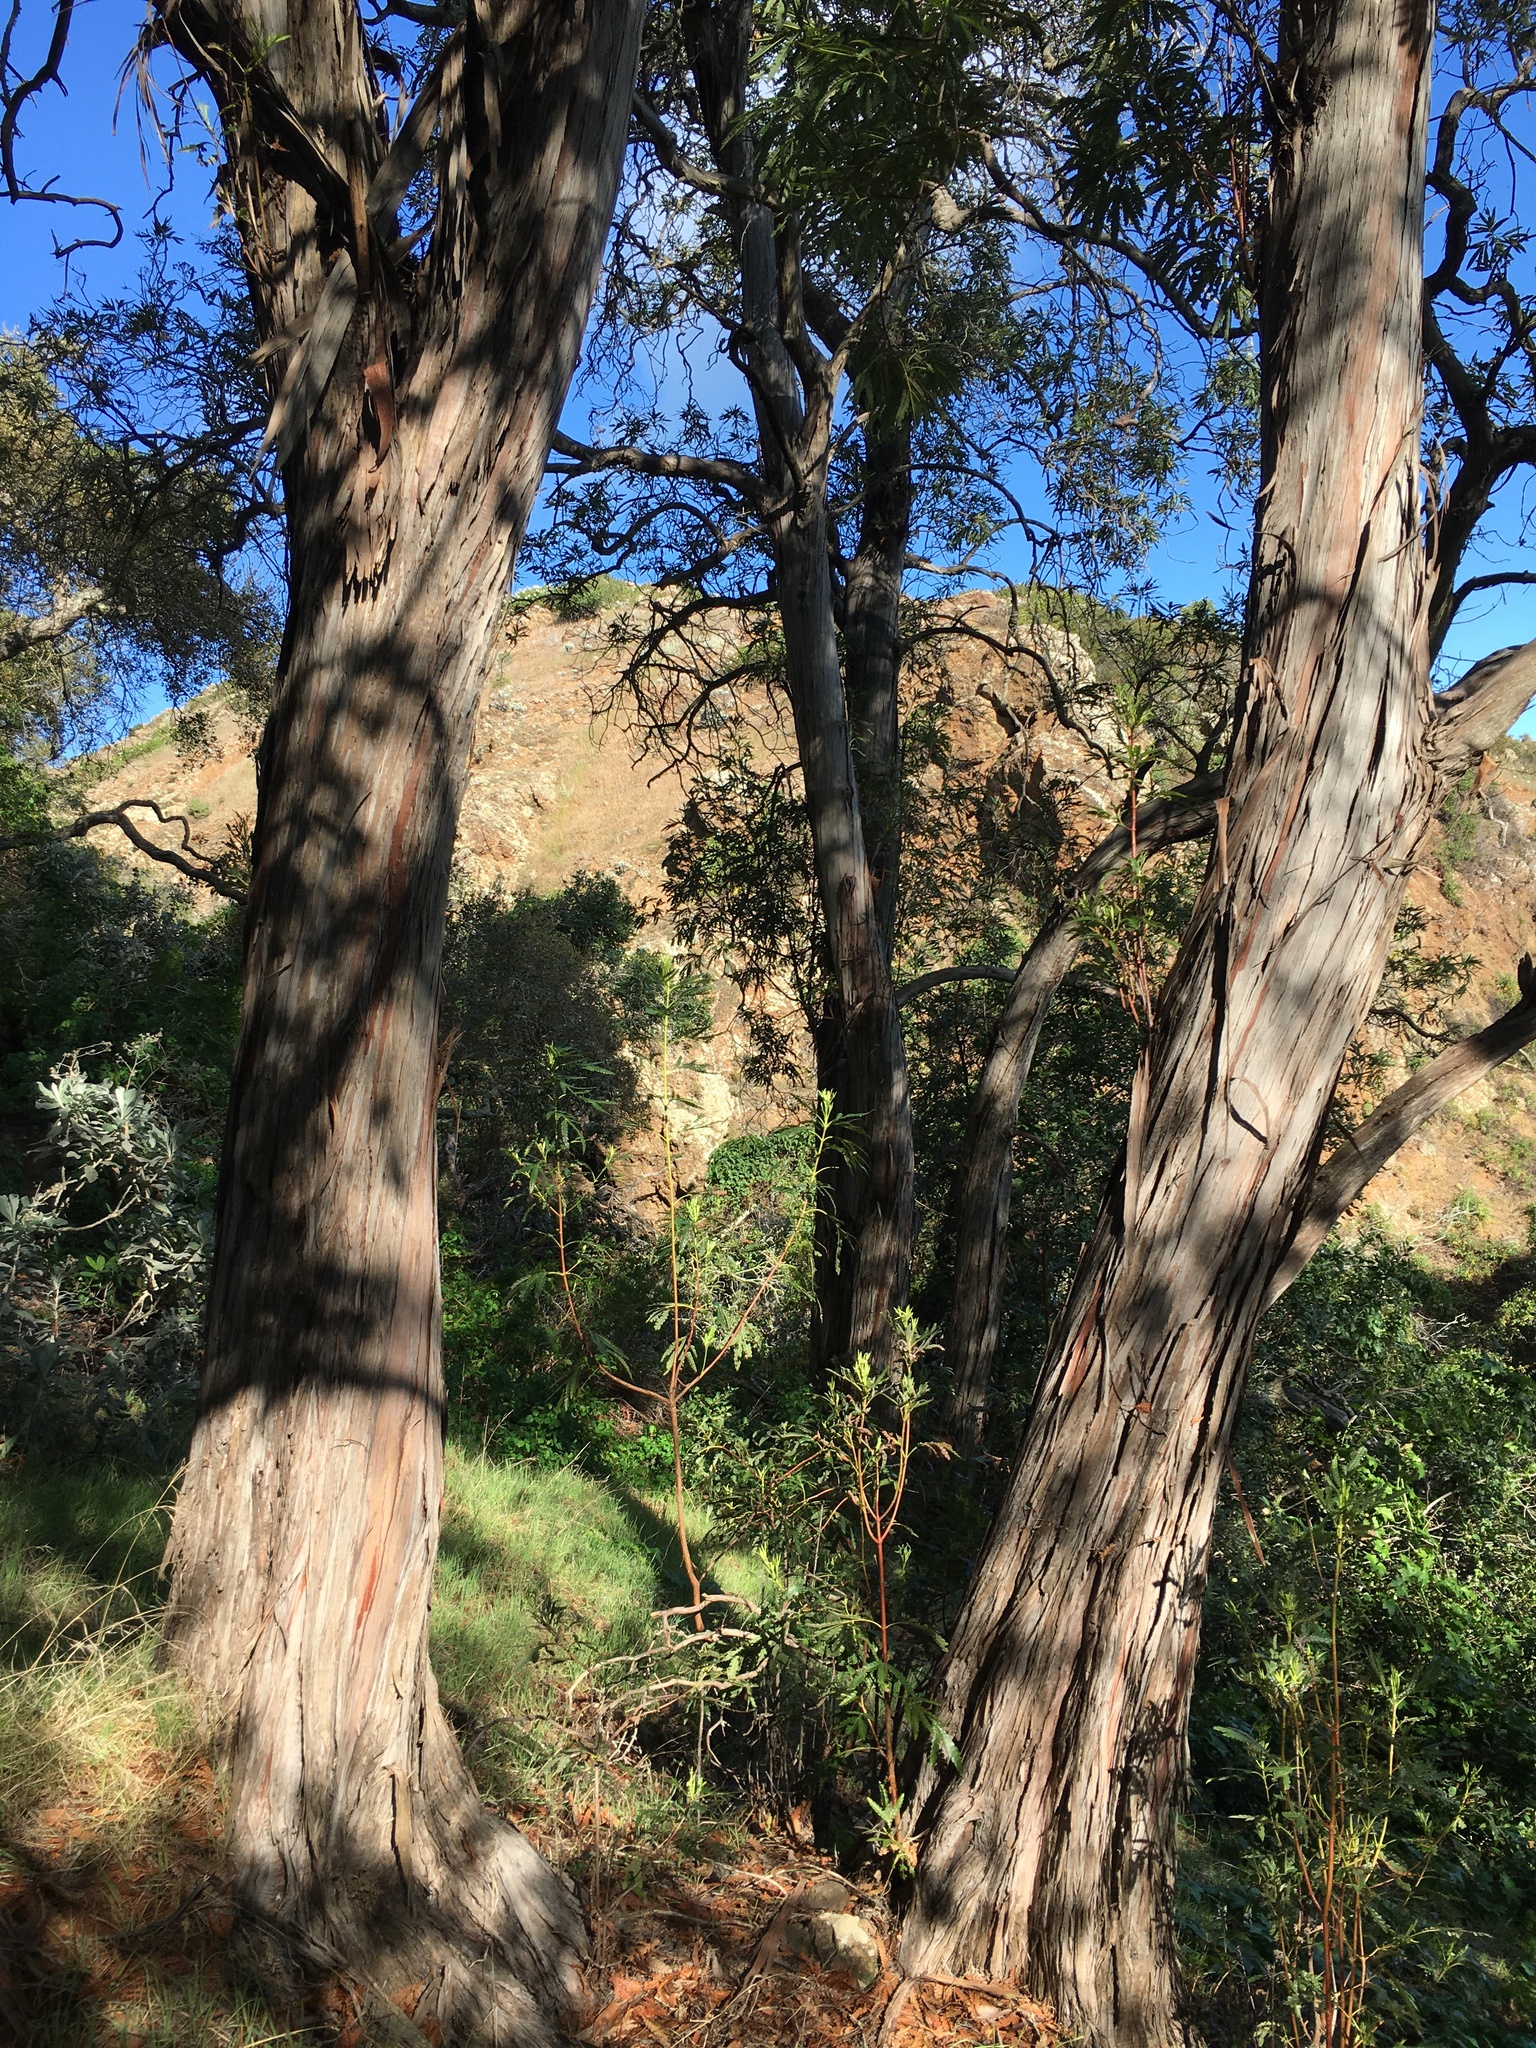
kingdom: Plantae
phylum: Tracheophyta
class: Magnoliopsida
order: Rosales
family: Rosaceae
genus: Lyonothamnus
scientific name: Lyonothamnus floribundus
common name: Catalina ironwood
